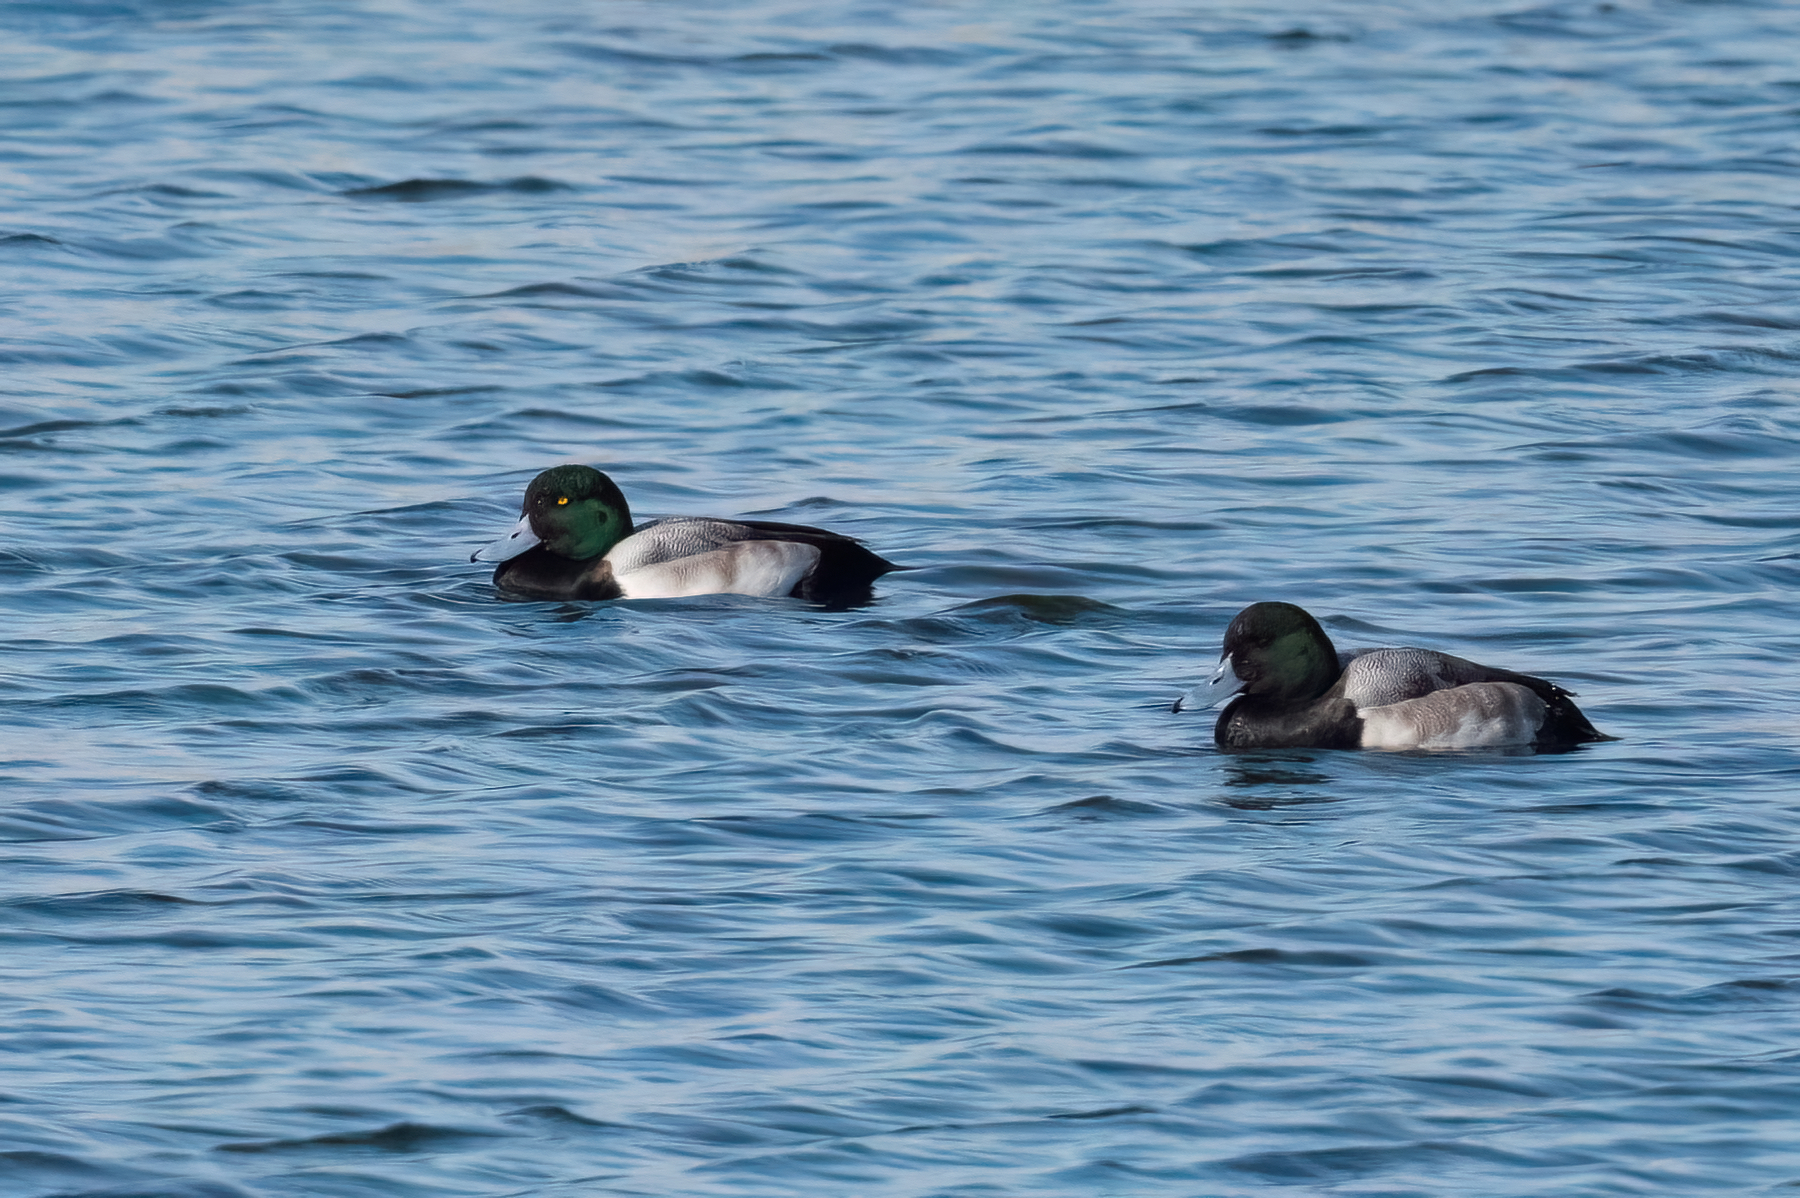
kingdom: Animalia
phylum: Chordata
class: Aves
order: Anseriformes
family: Anatidae
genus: Aythya
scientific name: Aythya marila
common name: Greater scaup
